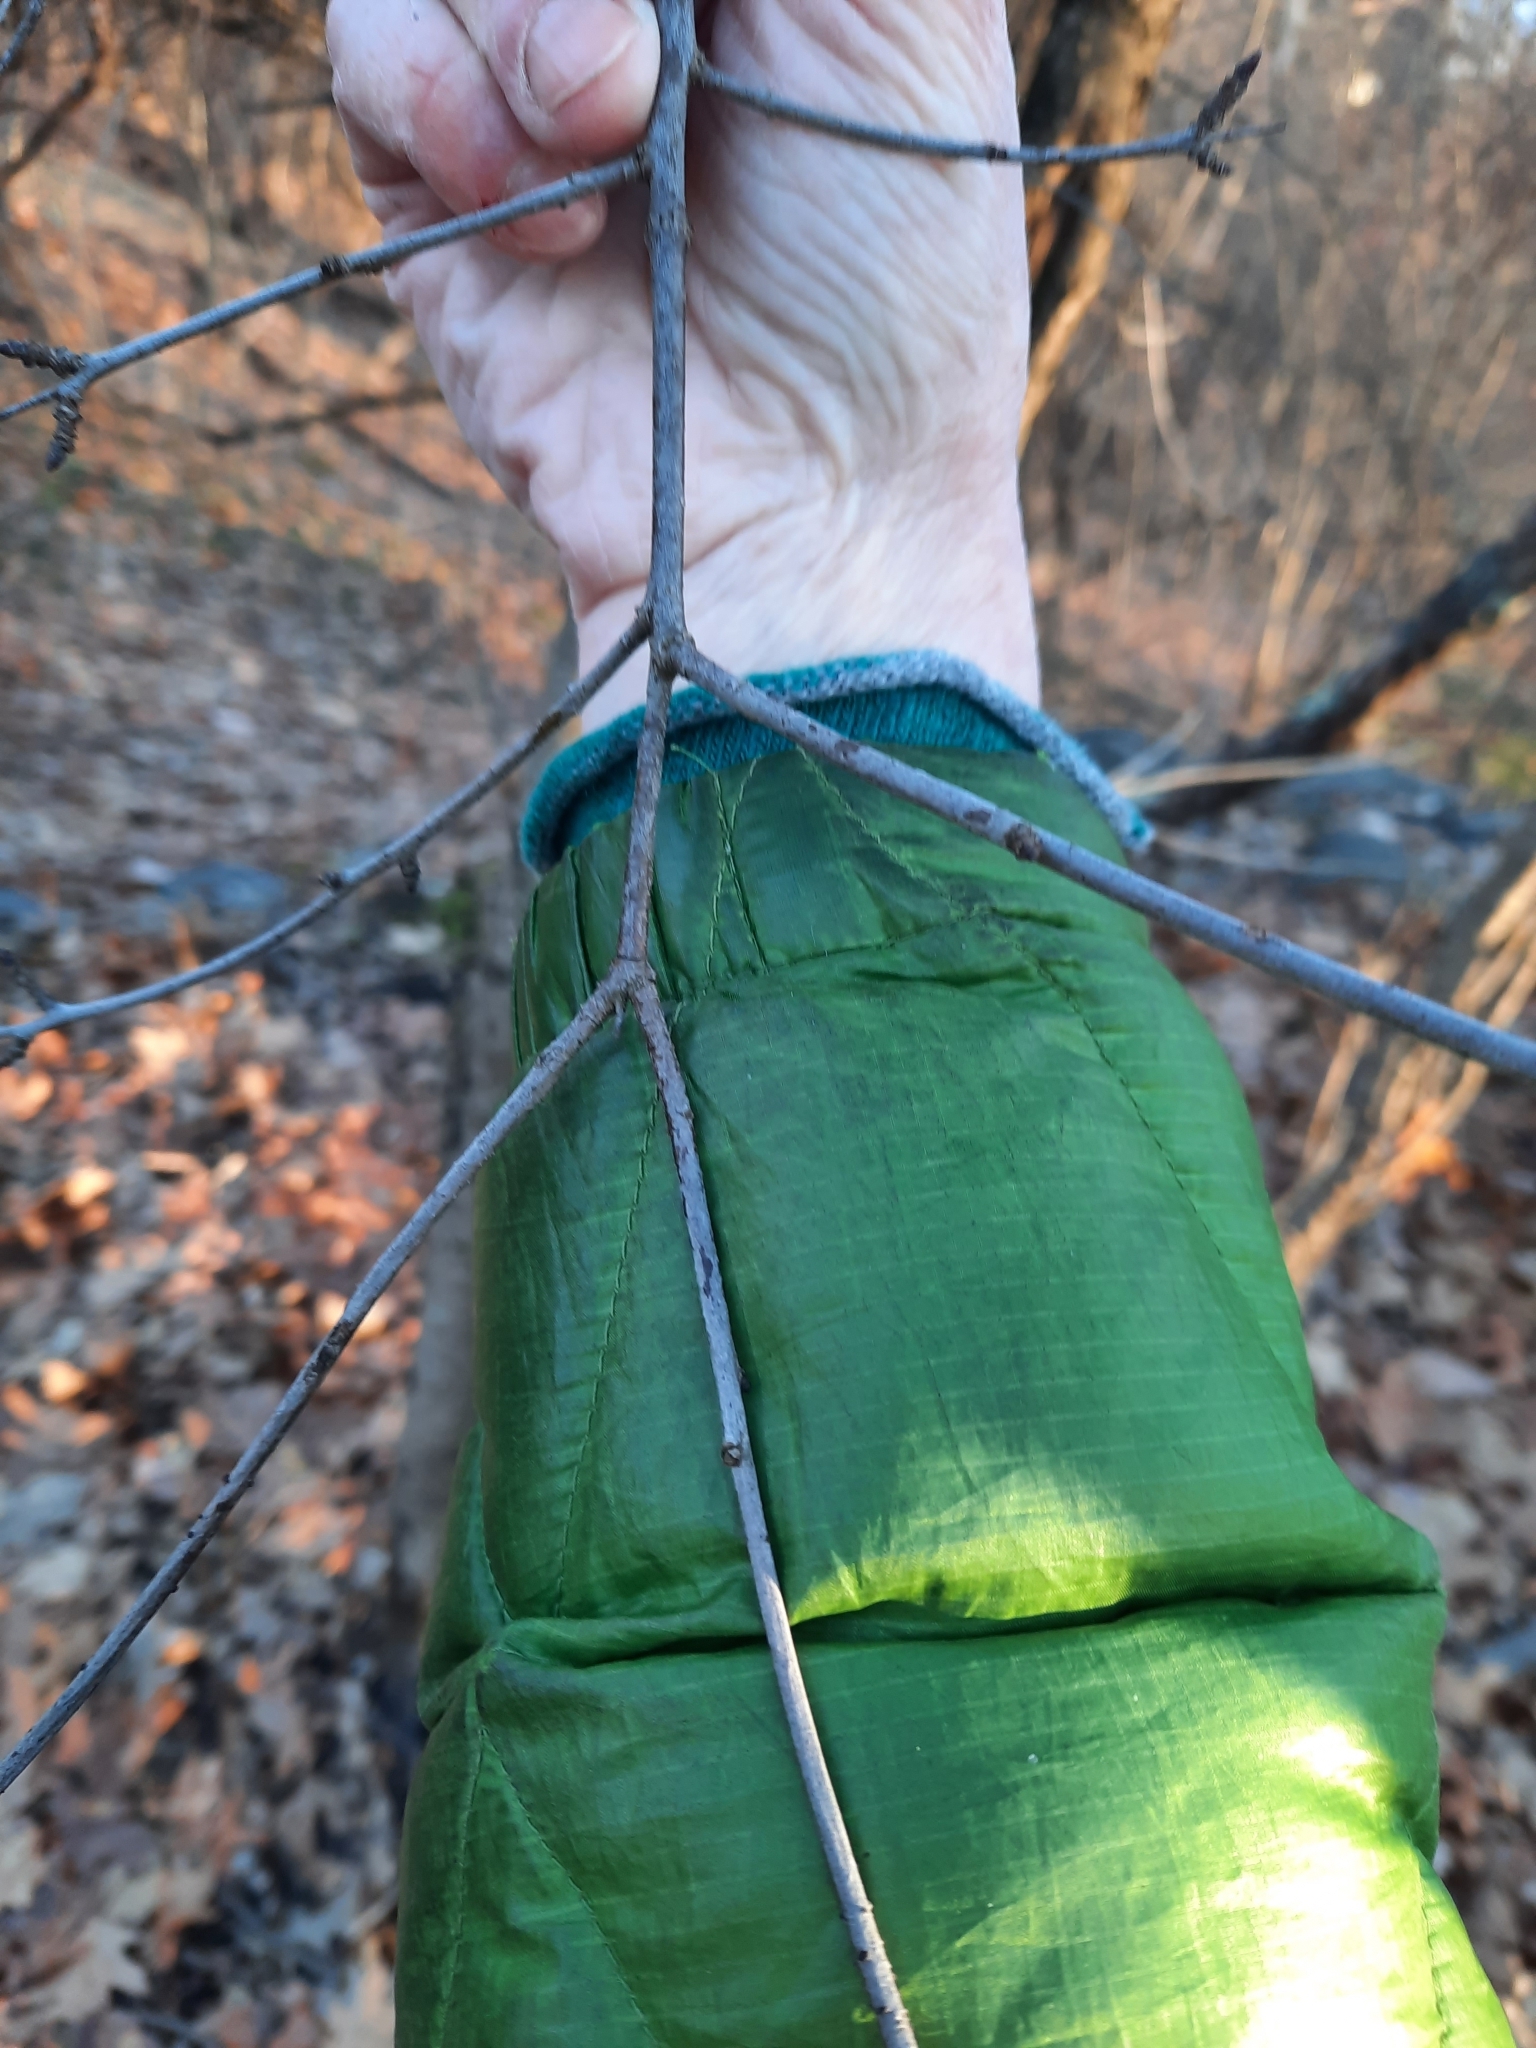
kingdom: Plantae
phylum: Tracheophyta
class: Magnoliopsida
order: Rosales
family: Rhamnaceae
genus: Rhamnus
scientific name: Rhamnus cathartica
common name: Common buckthorn
